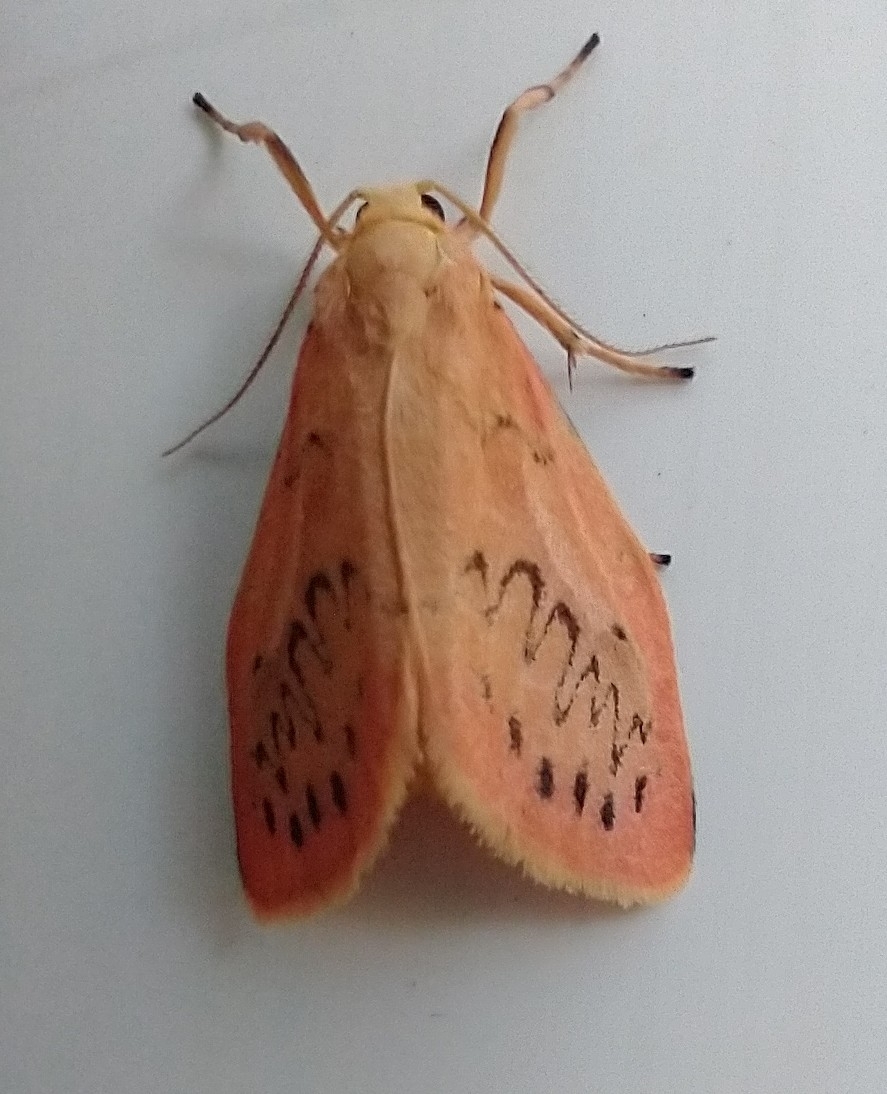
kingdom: Animalia
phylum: Arthropoda
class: Insecta
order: Lepidoptera
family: Erebidae
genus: Miltochrista
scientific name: Miltochrista miniata
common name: Rosy footman
